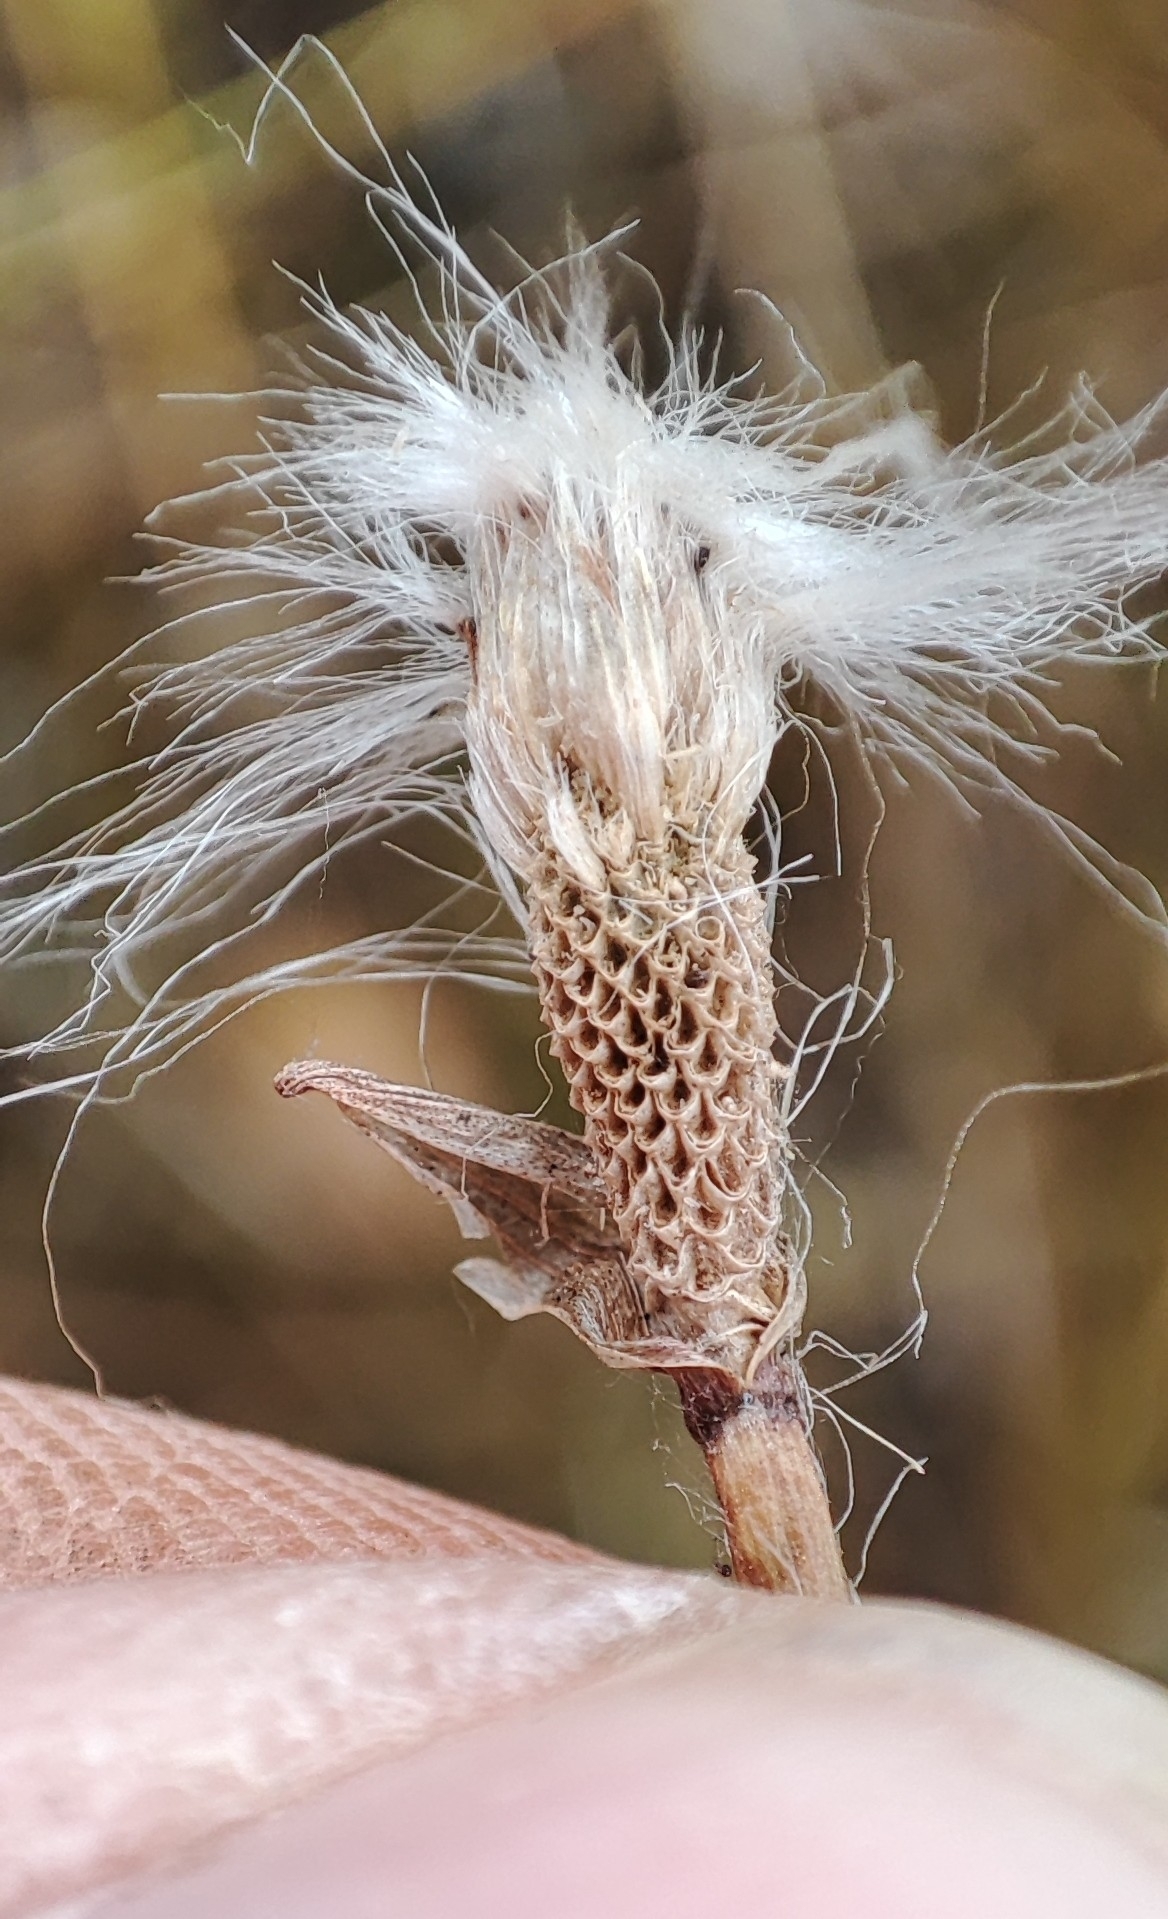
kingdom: Plantae
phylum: Tracheophyta
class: Liliopsida
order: Poales
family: Cyperaceae
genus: Eriophorum
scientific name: Eriophorum scheuchzeri
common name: Scheuchzer's cottongrass
